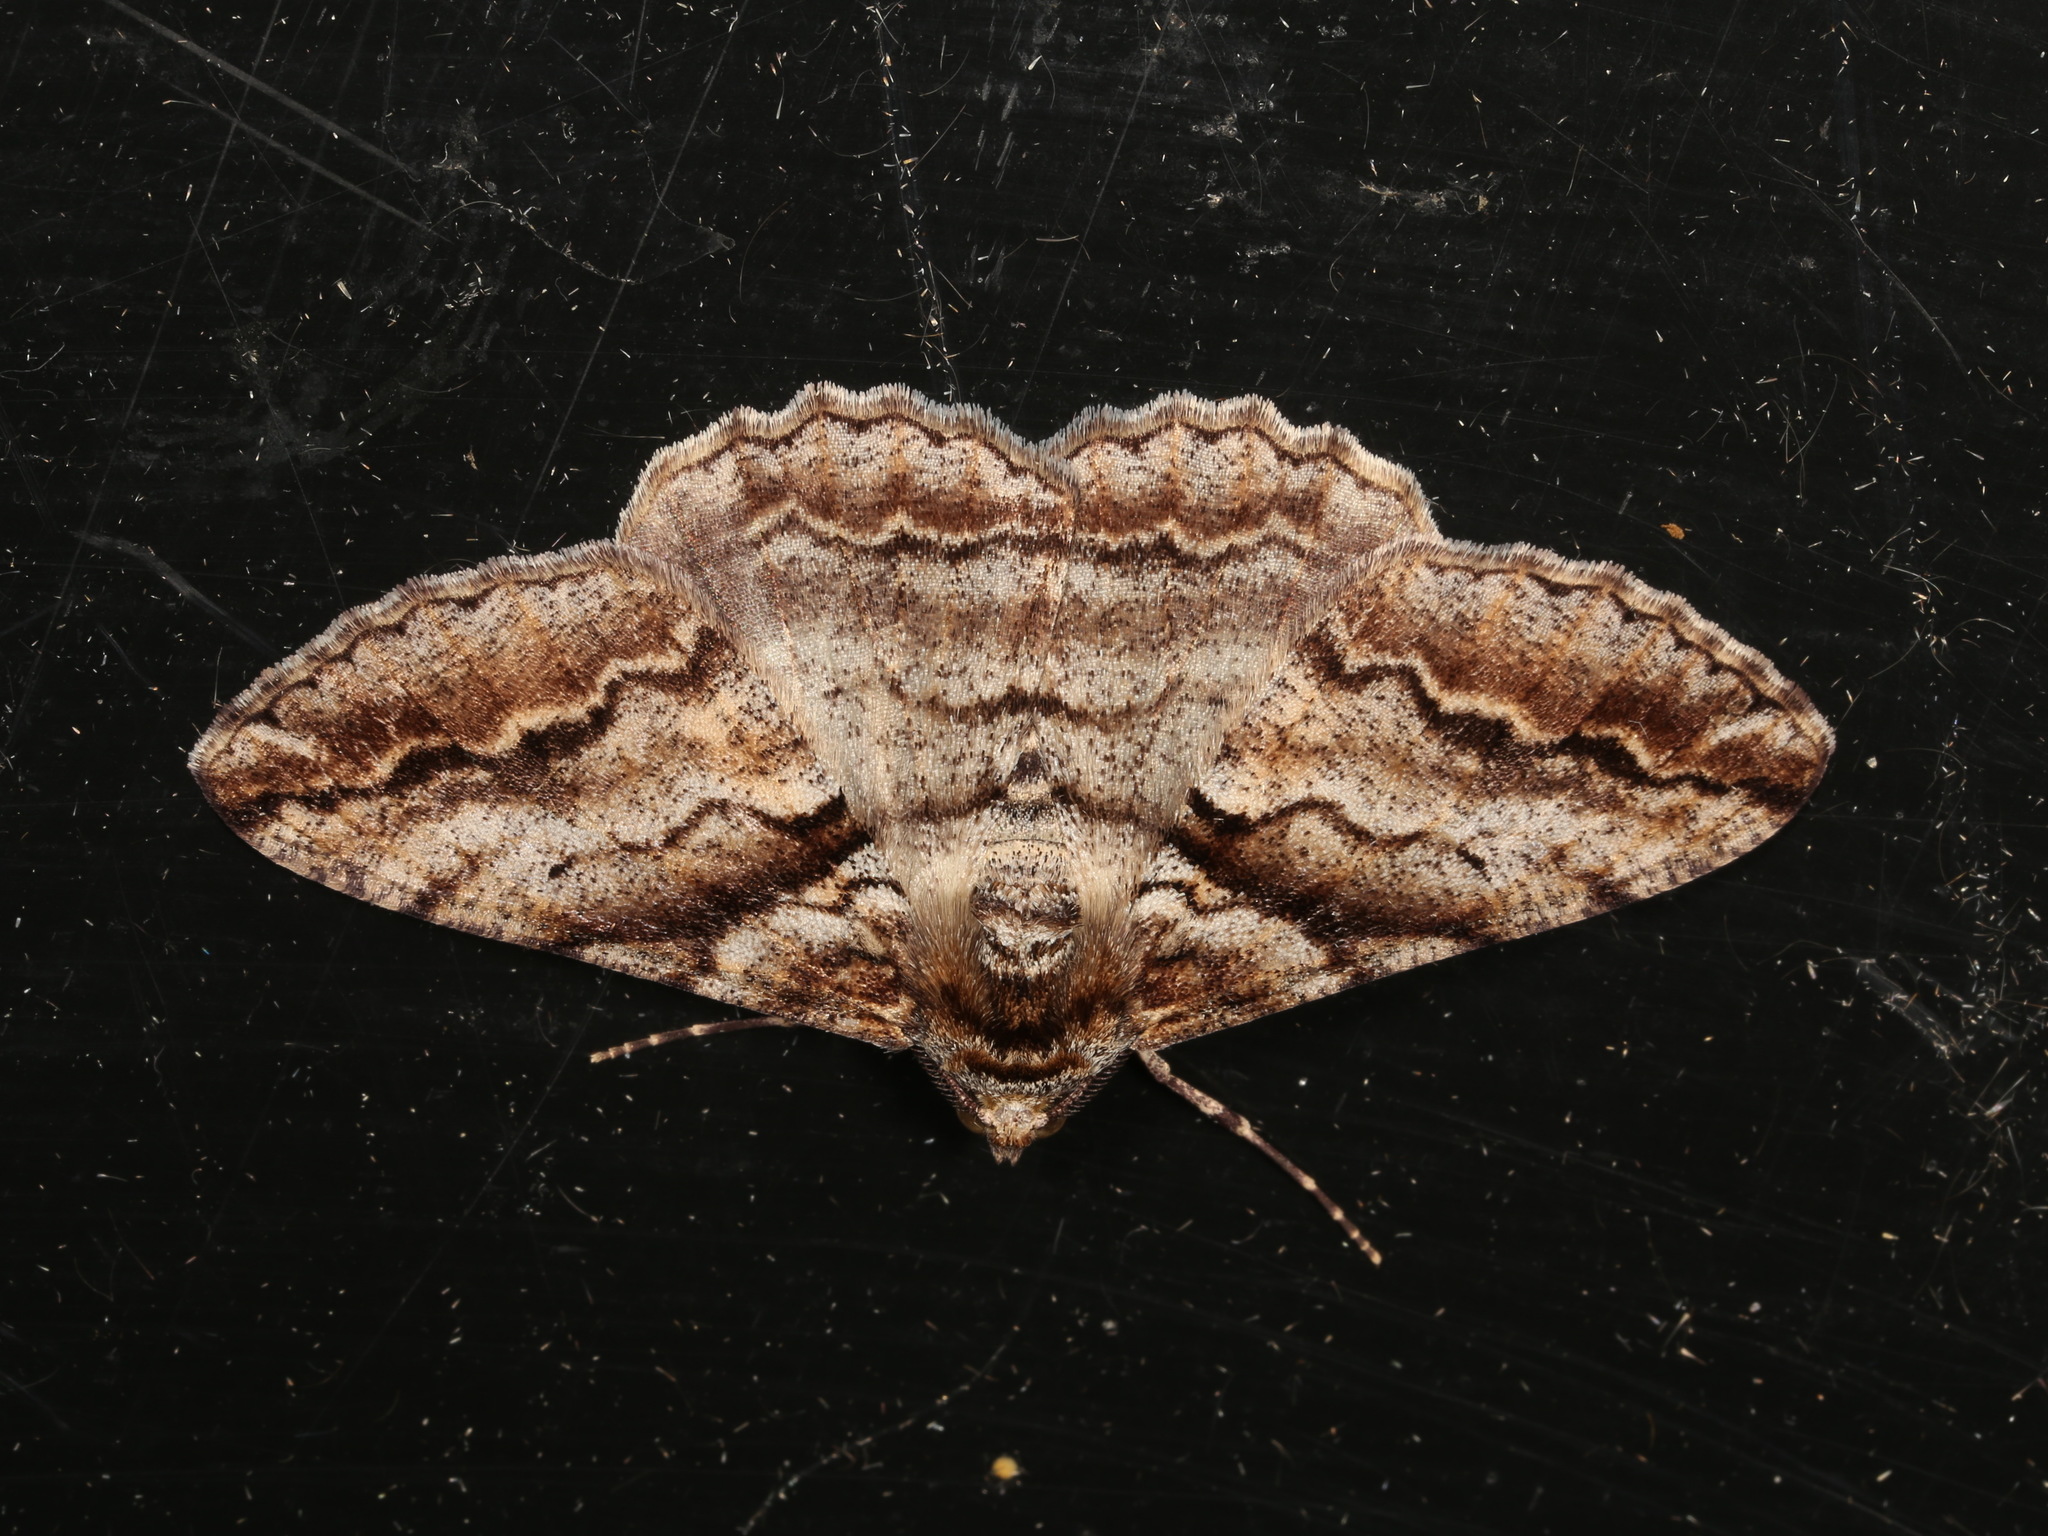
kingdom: Animalia
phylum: Arthropoda
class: Insecta
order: Lepidoptera
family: Geometridae
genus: Gastrinodes
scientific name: Gastrinodes bitaeniaria
